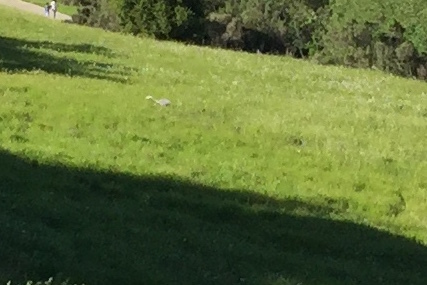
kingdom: Animalia
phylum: Chordata
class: Aves
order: Pelecaniformes
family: Ardeidae
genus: Ardea
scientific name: Ardea herodias
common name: Great blue heron
